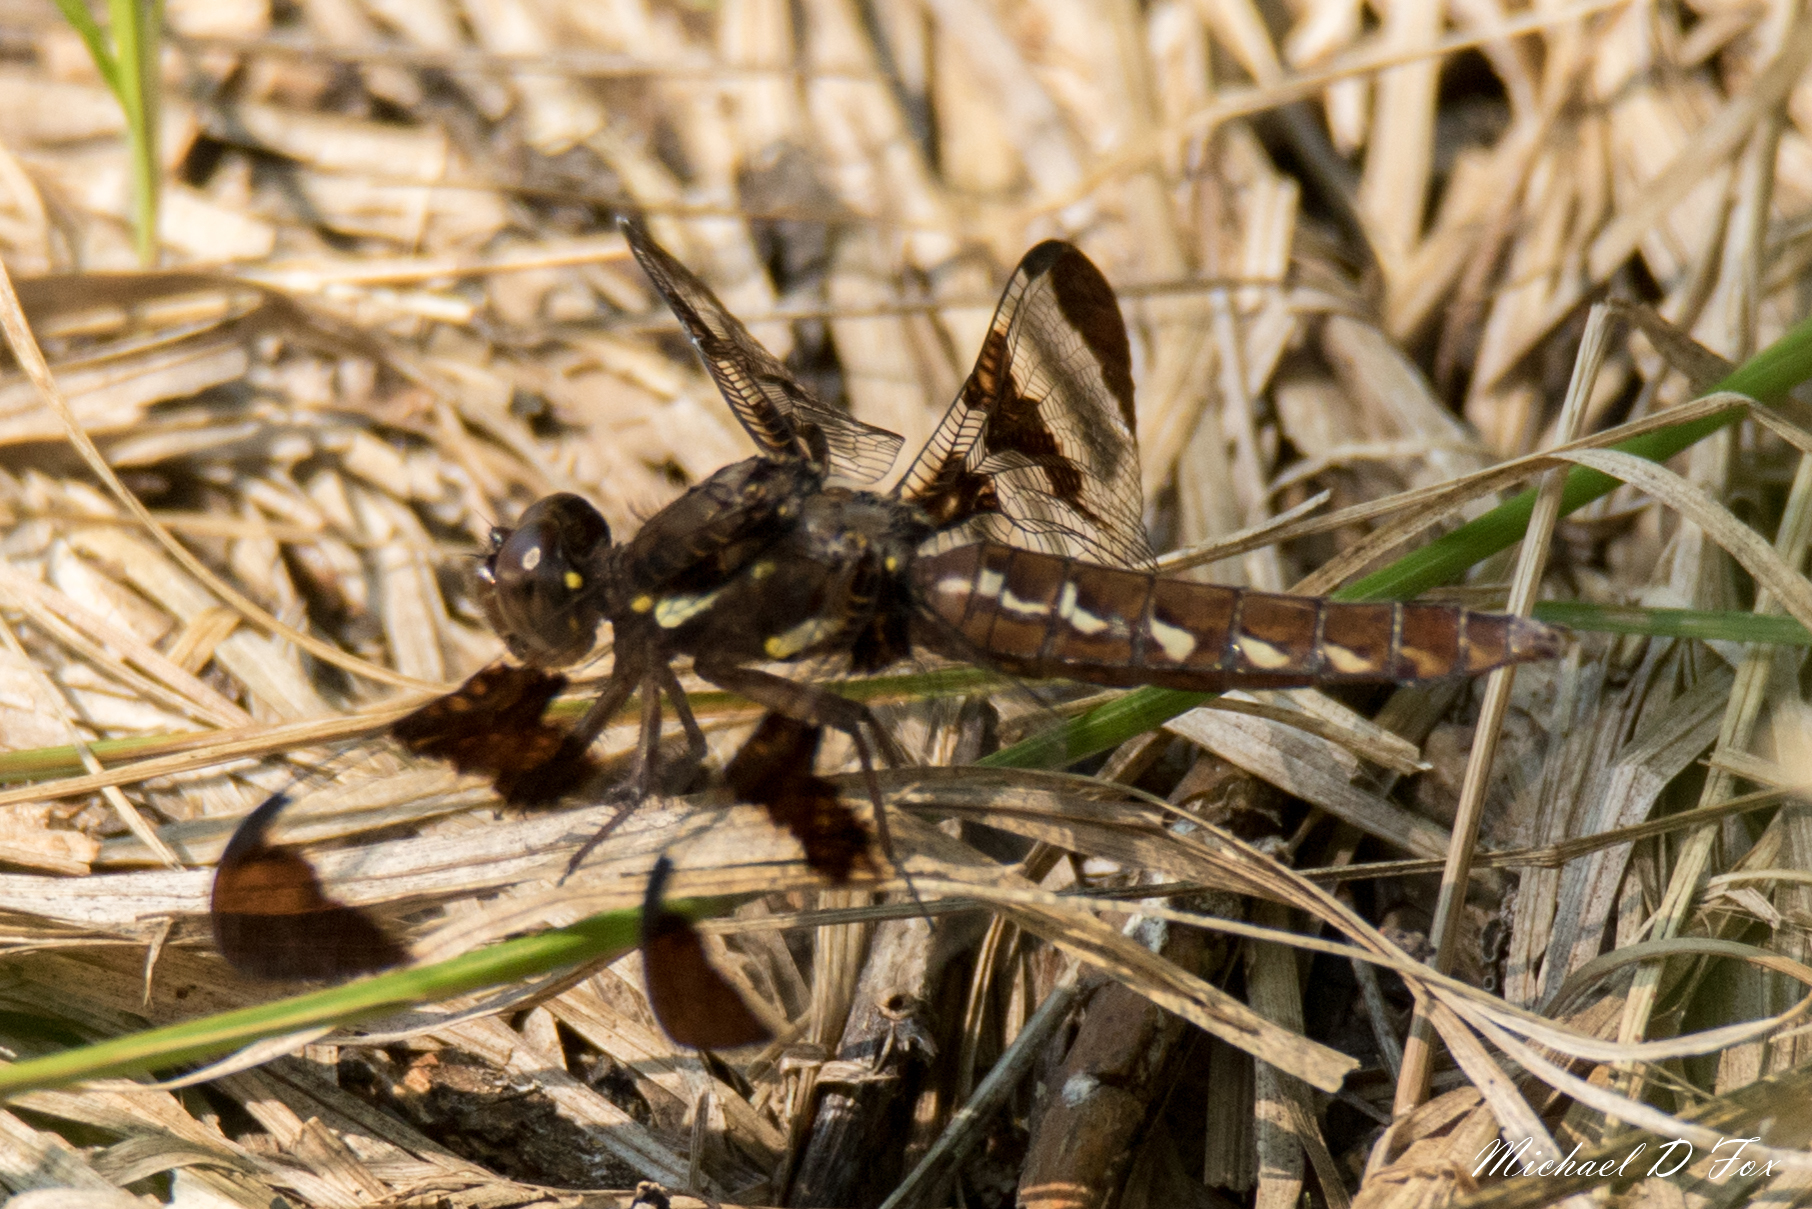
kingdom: Animalia
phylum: Arthropoda
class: Insecta
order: Odonata
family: Libellulidae
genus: Plathemis
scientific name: Plathemis lydia
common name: Common whitetail
